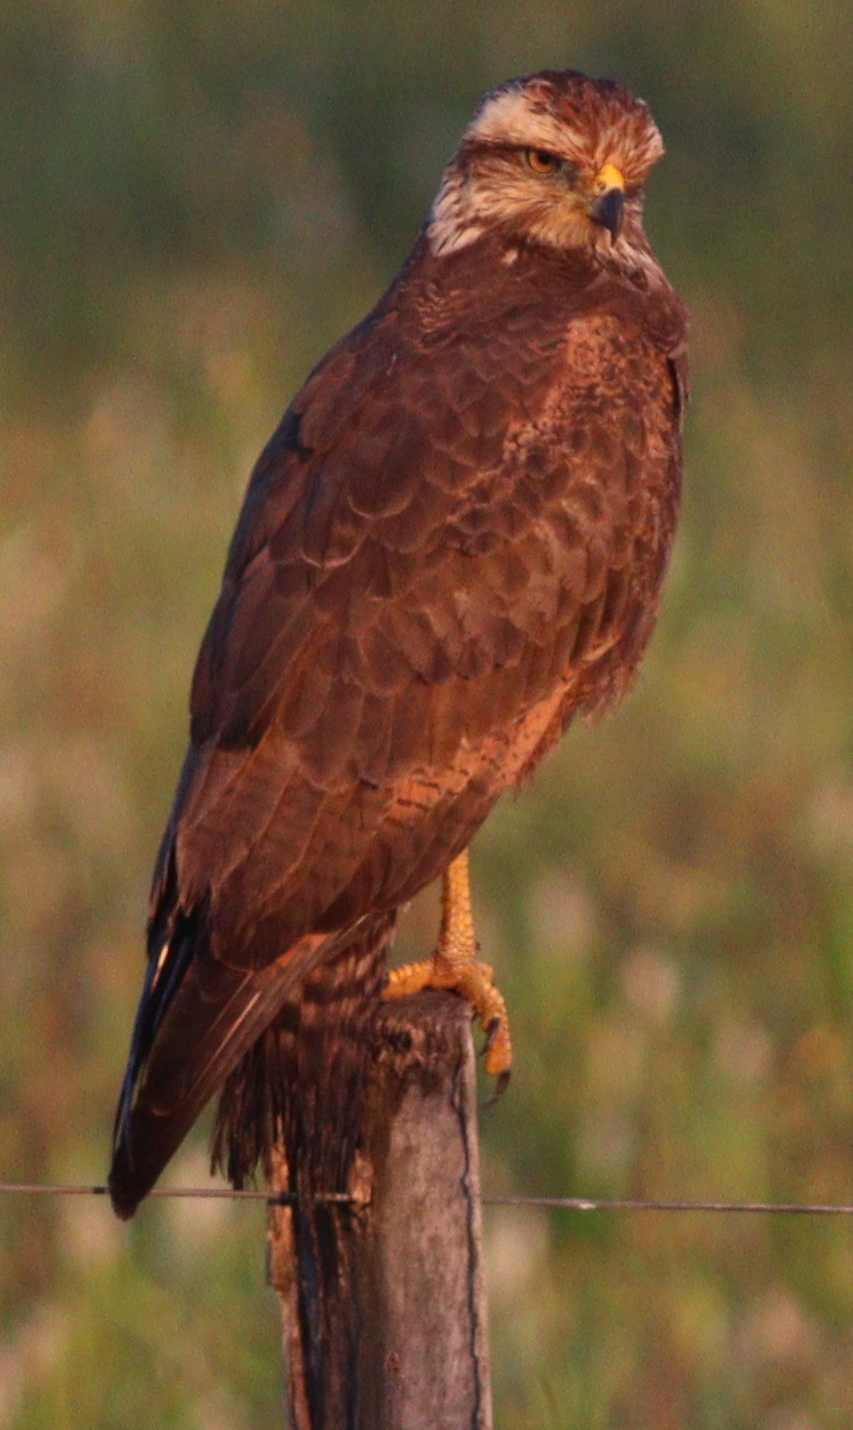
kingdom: Animalia
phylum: Chordata
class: Aves
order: Accipitriformes
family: Accipitridae
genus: Buteogallus
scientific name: Buteogallus meridionalis
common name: Savanna hawk
